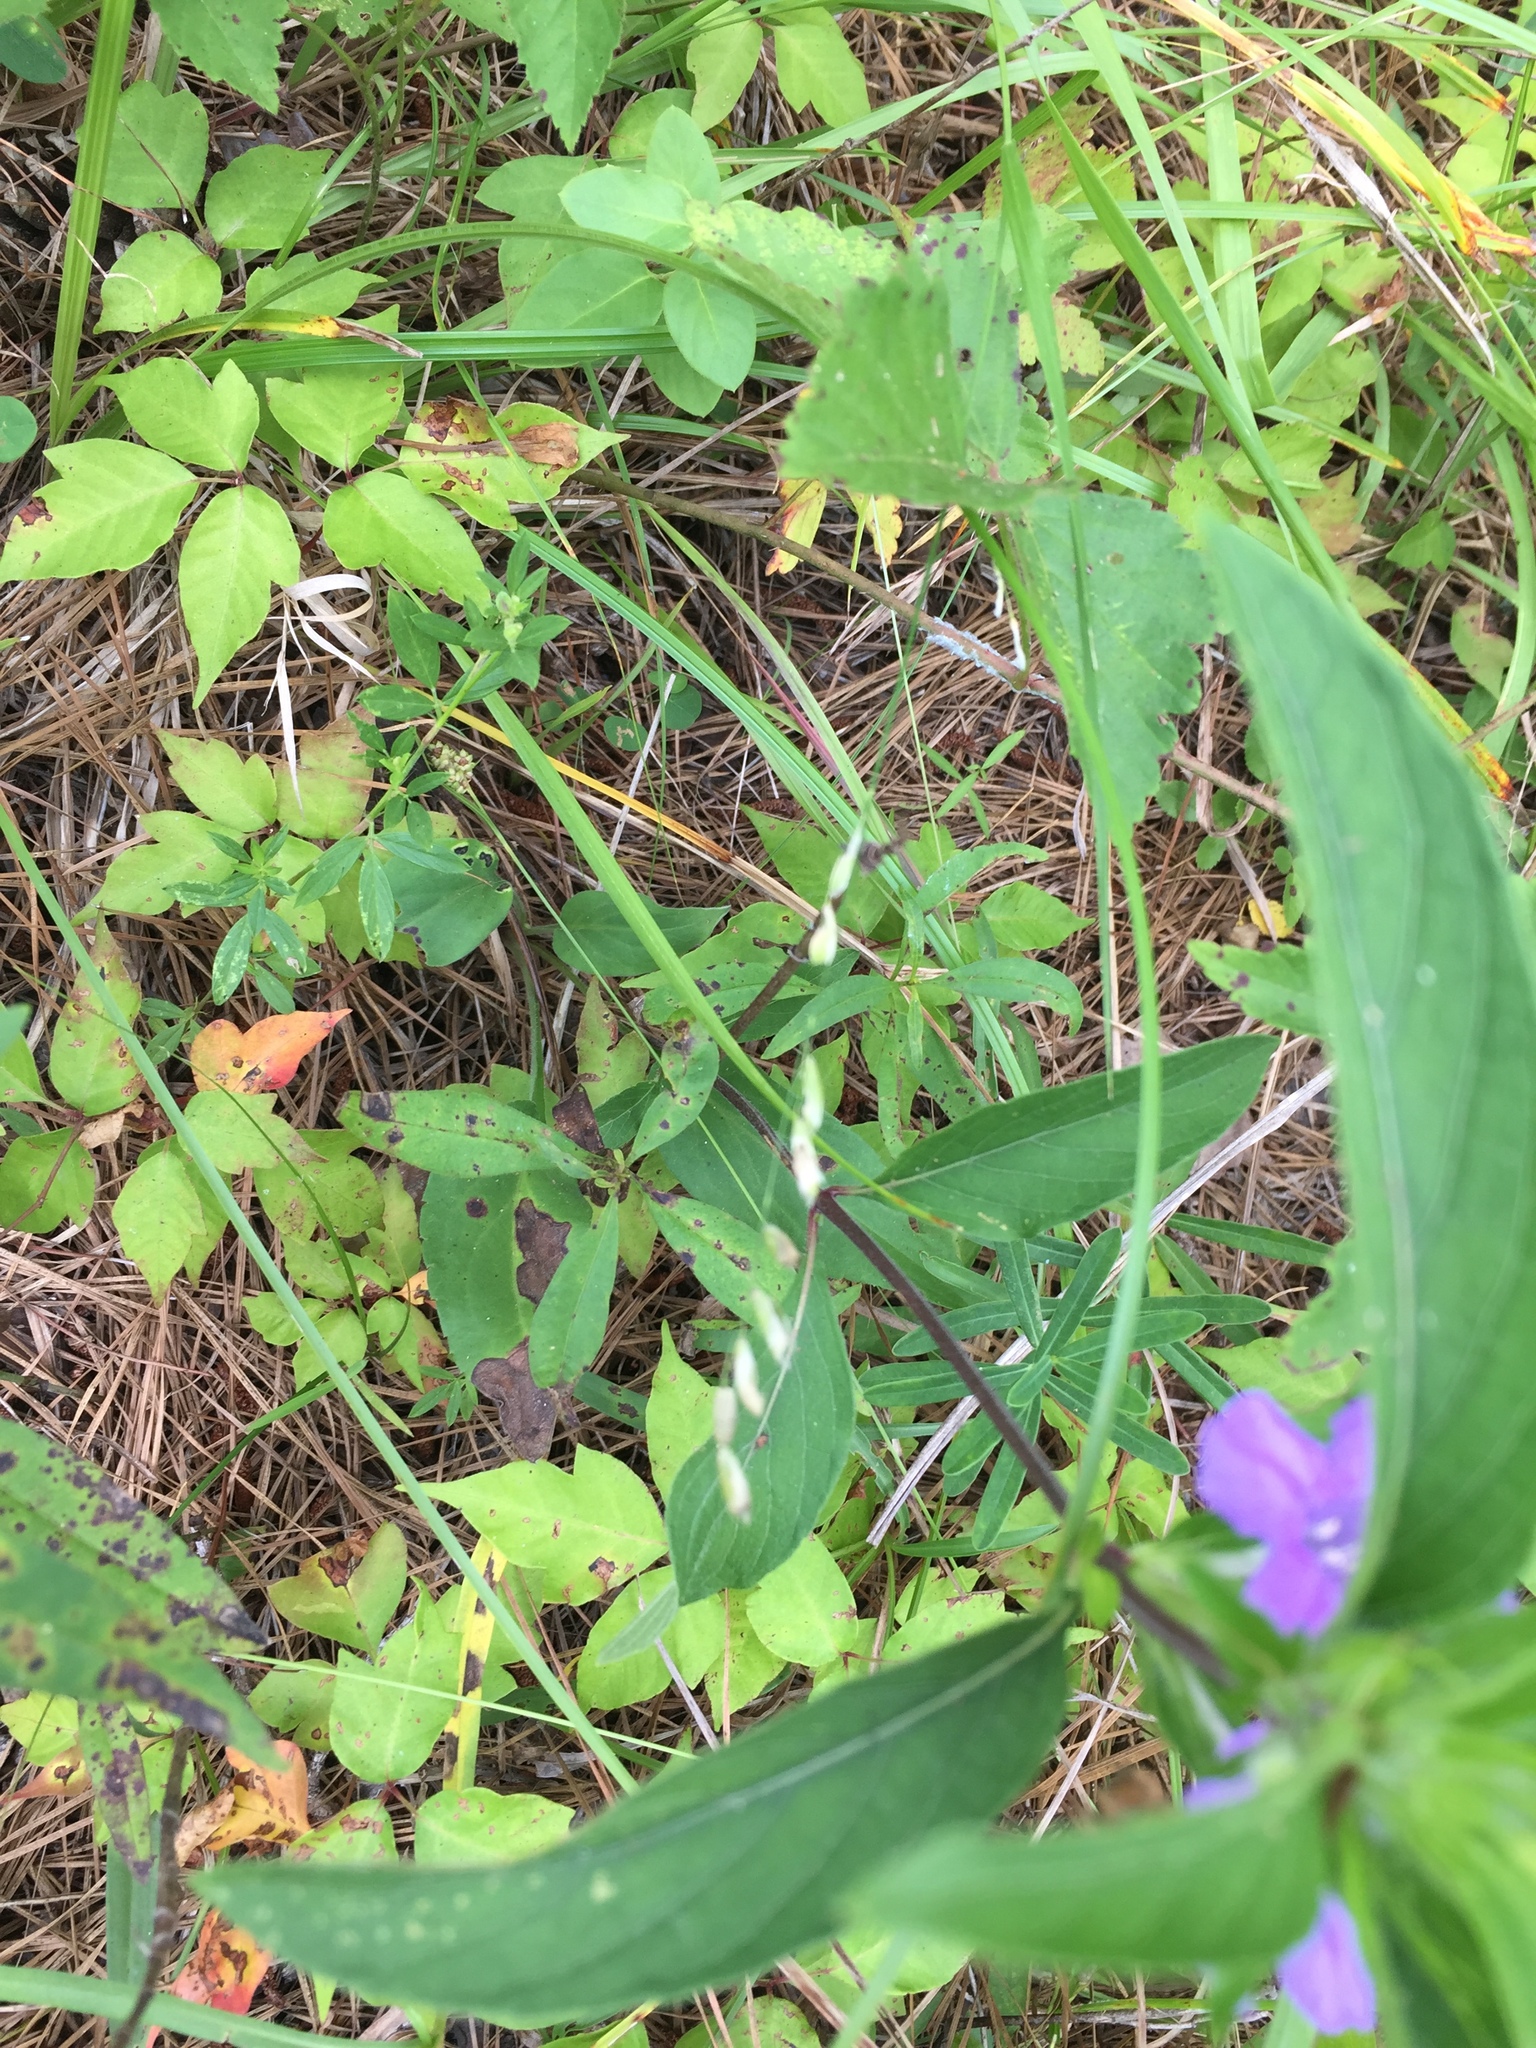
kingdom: Plantae
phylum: Tracheophyta
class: Liliopsida
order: Poales
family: Poaceae
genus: Melica
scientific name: Melica mutica
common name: Two-flower melic
